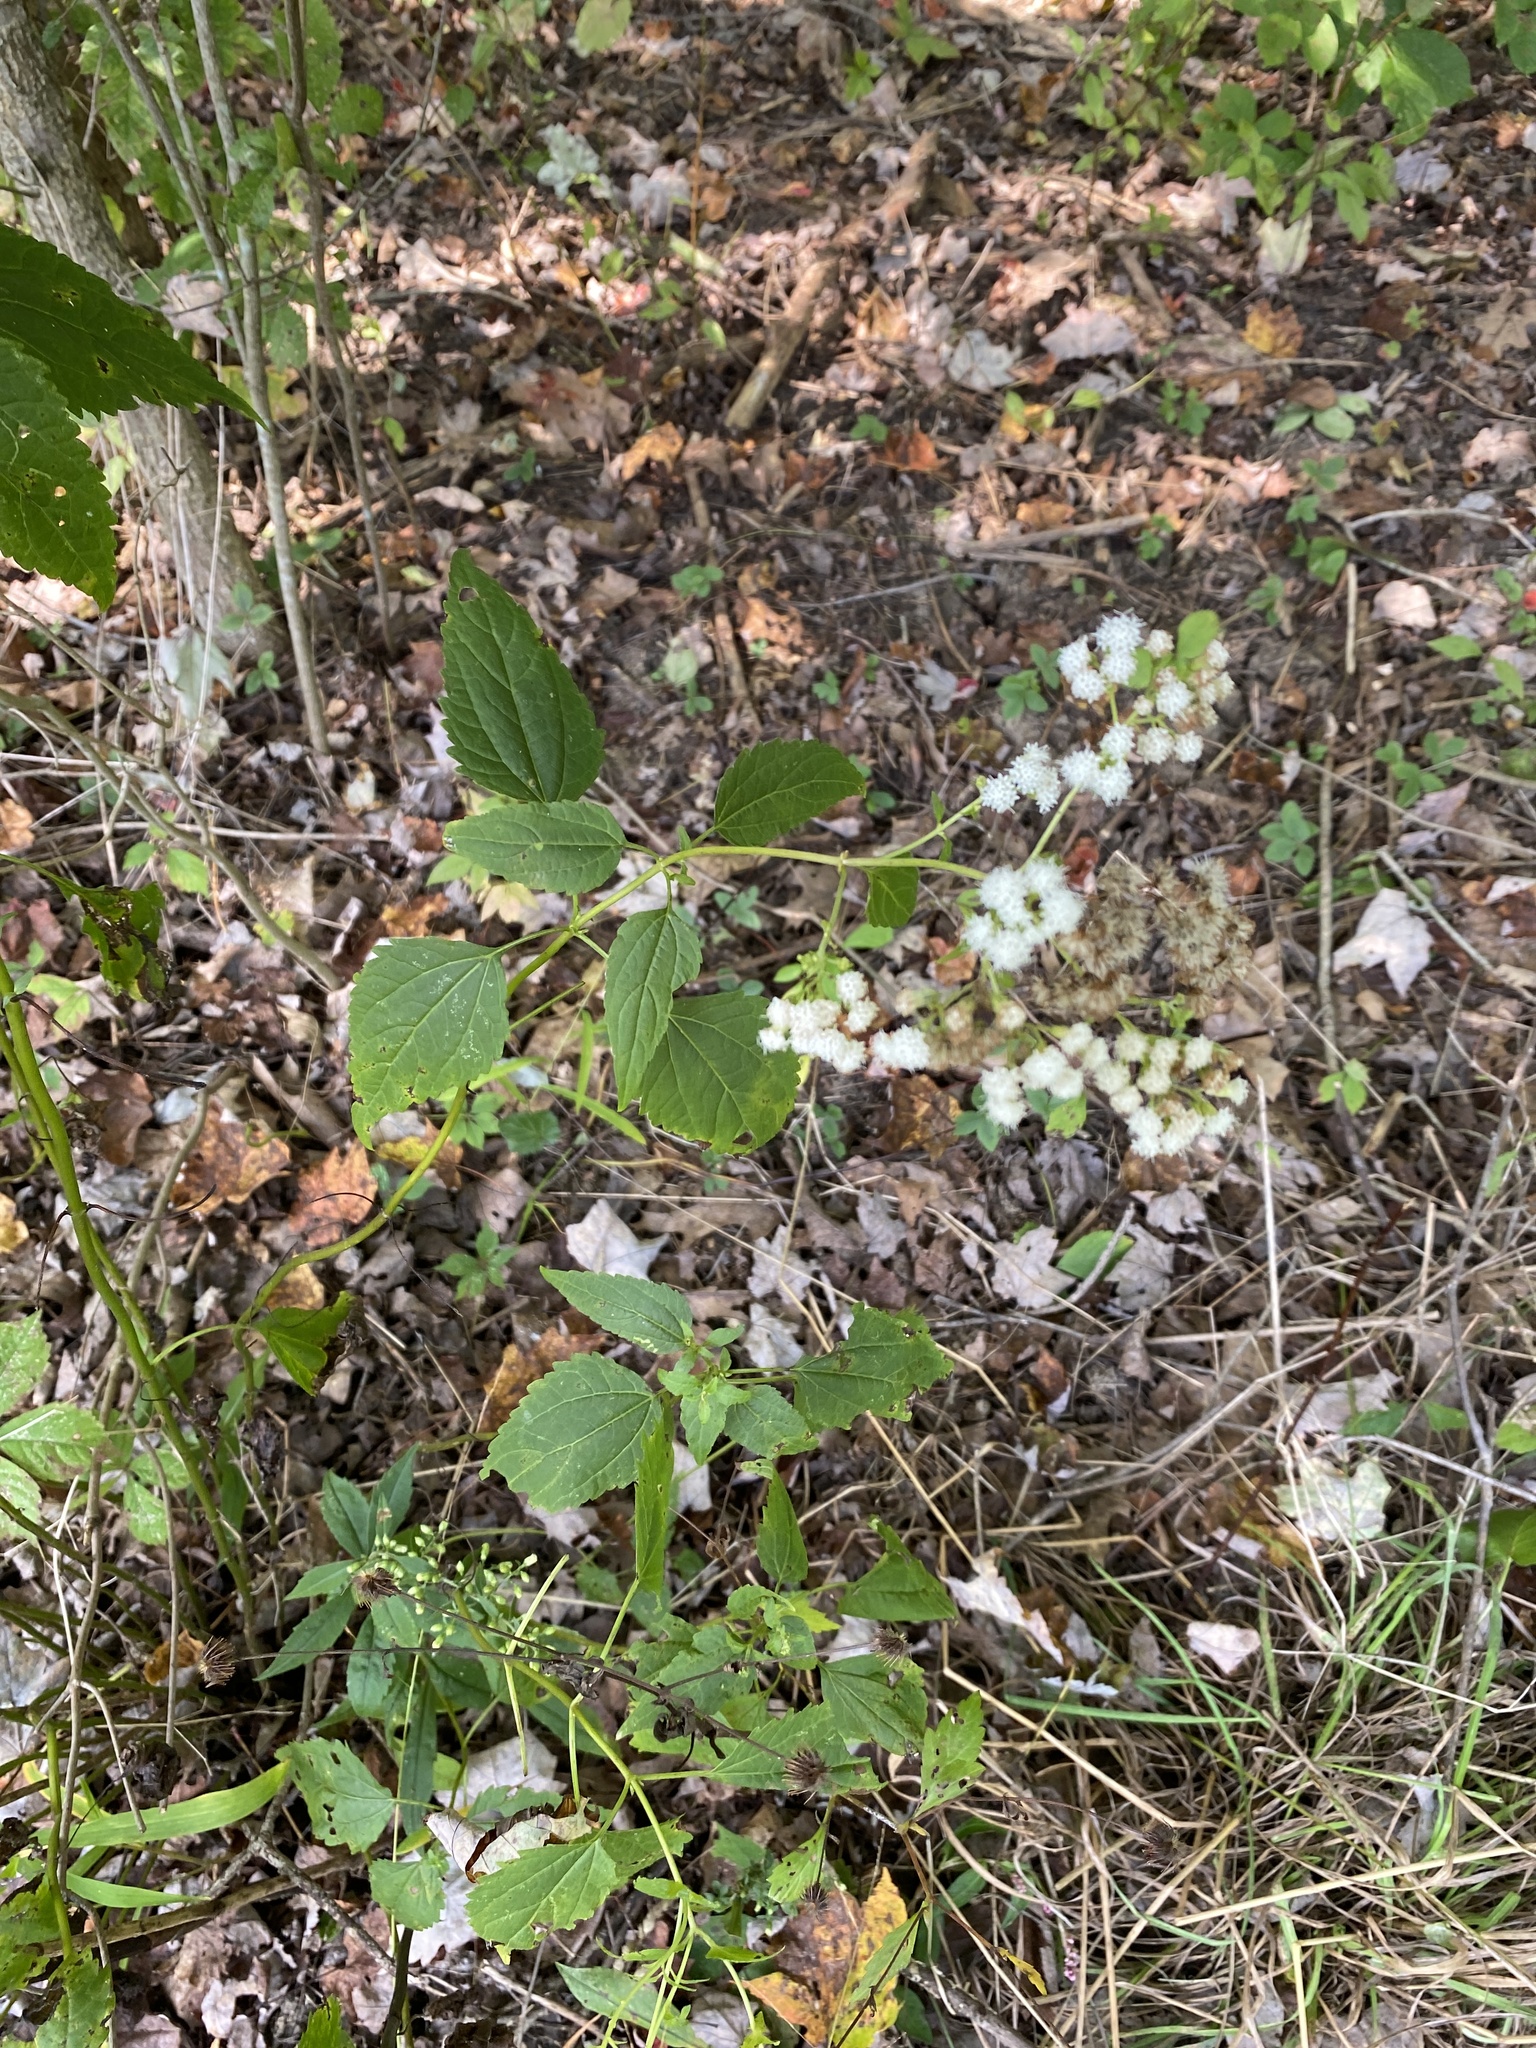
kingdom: Plantae
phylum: Tracheophyta
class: Magnoliopsida
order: Asterales
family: Asteraceae
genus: Ageratina
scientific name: Ageratina altissima
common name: White snakeroot
